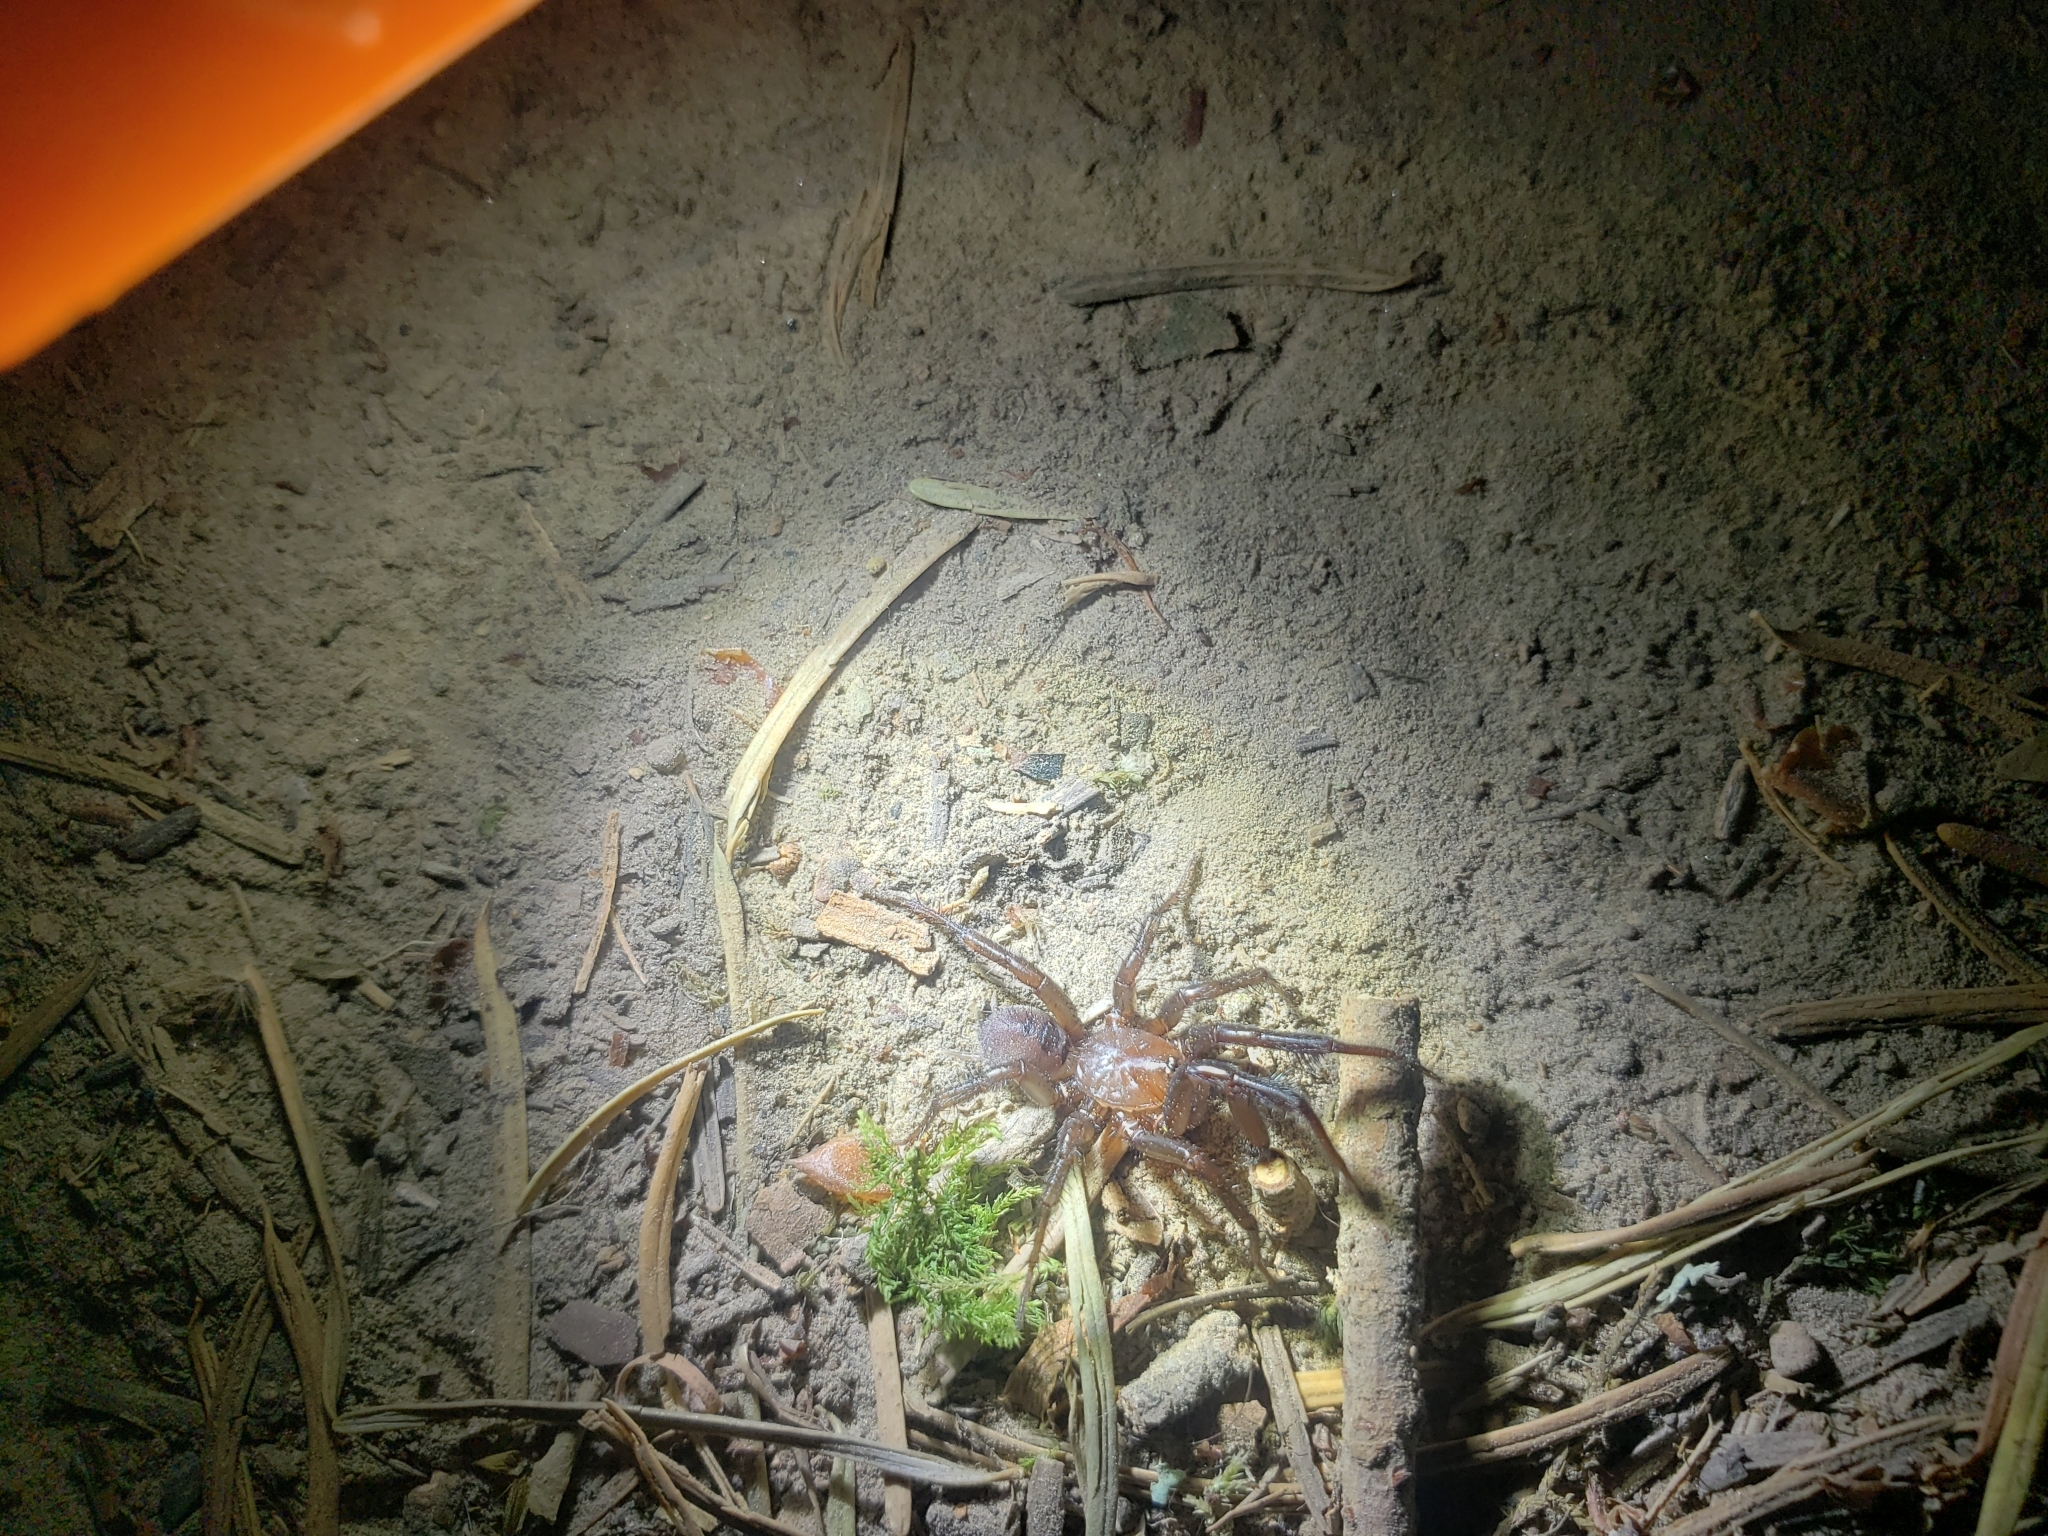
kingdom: Animalia
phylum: Arthropoda
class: Arachnida
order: Araneae
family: Antrodiaetidae
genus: Antrodiaetus
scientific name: Antrodiaetus pacificus
